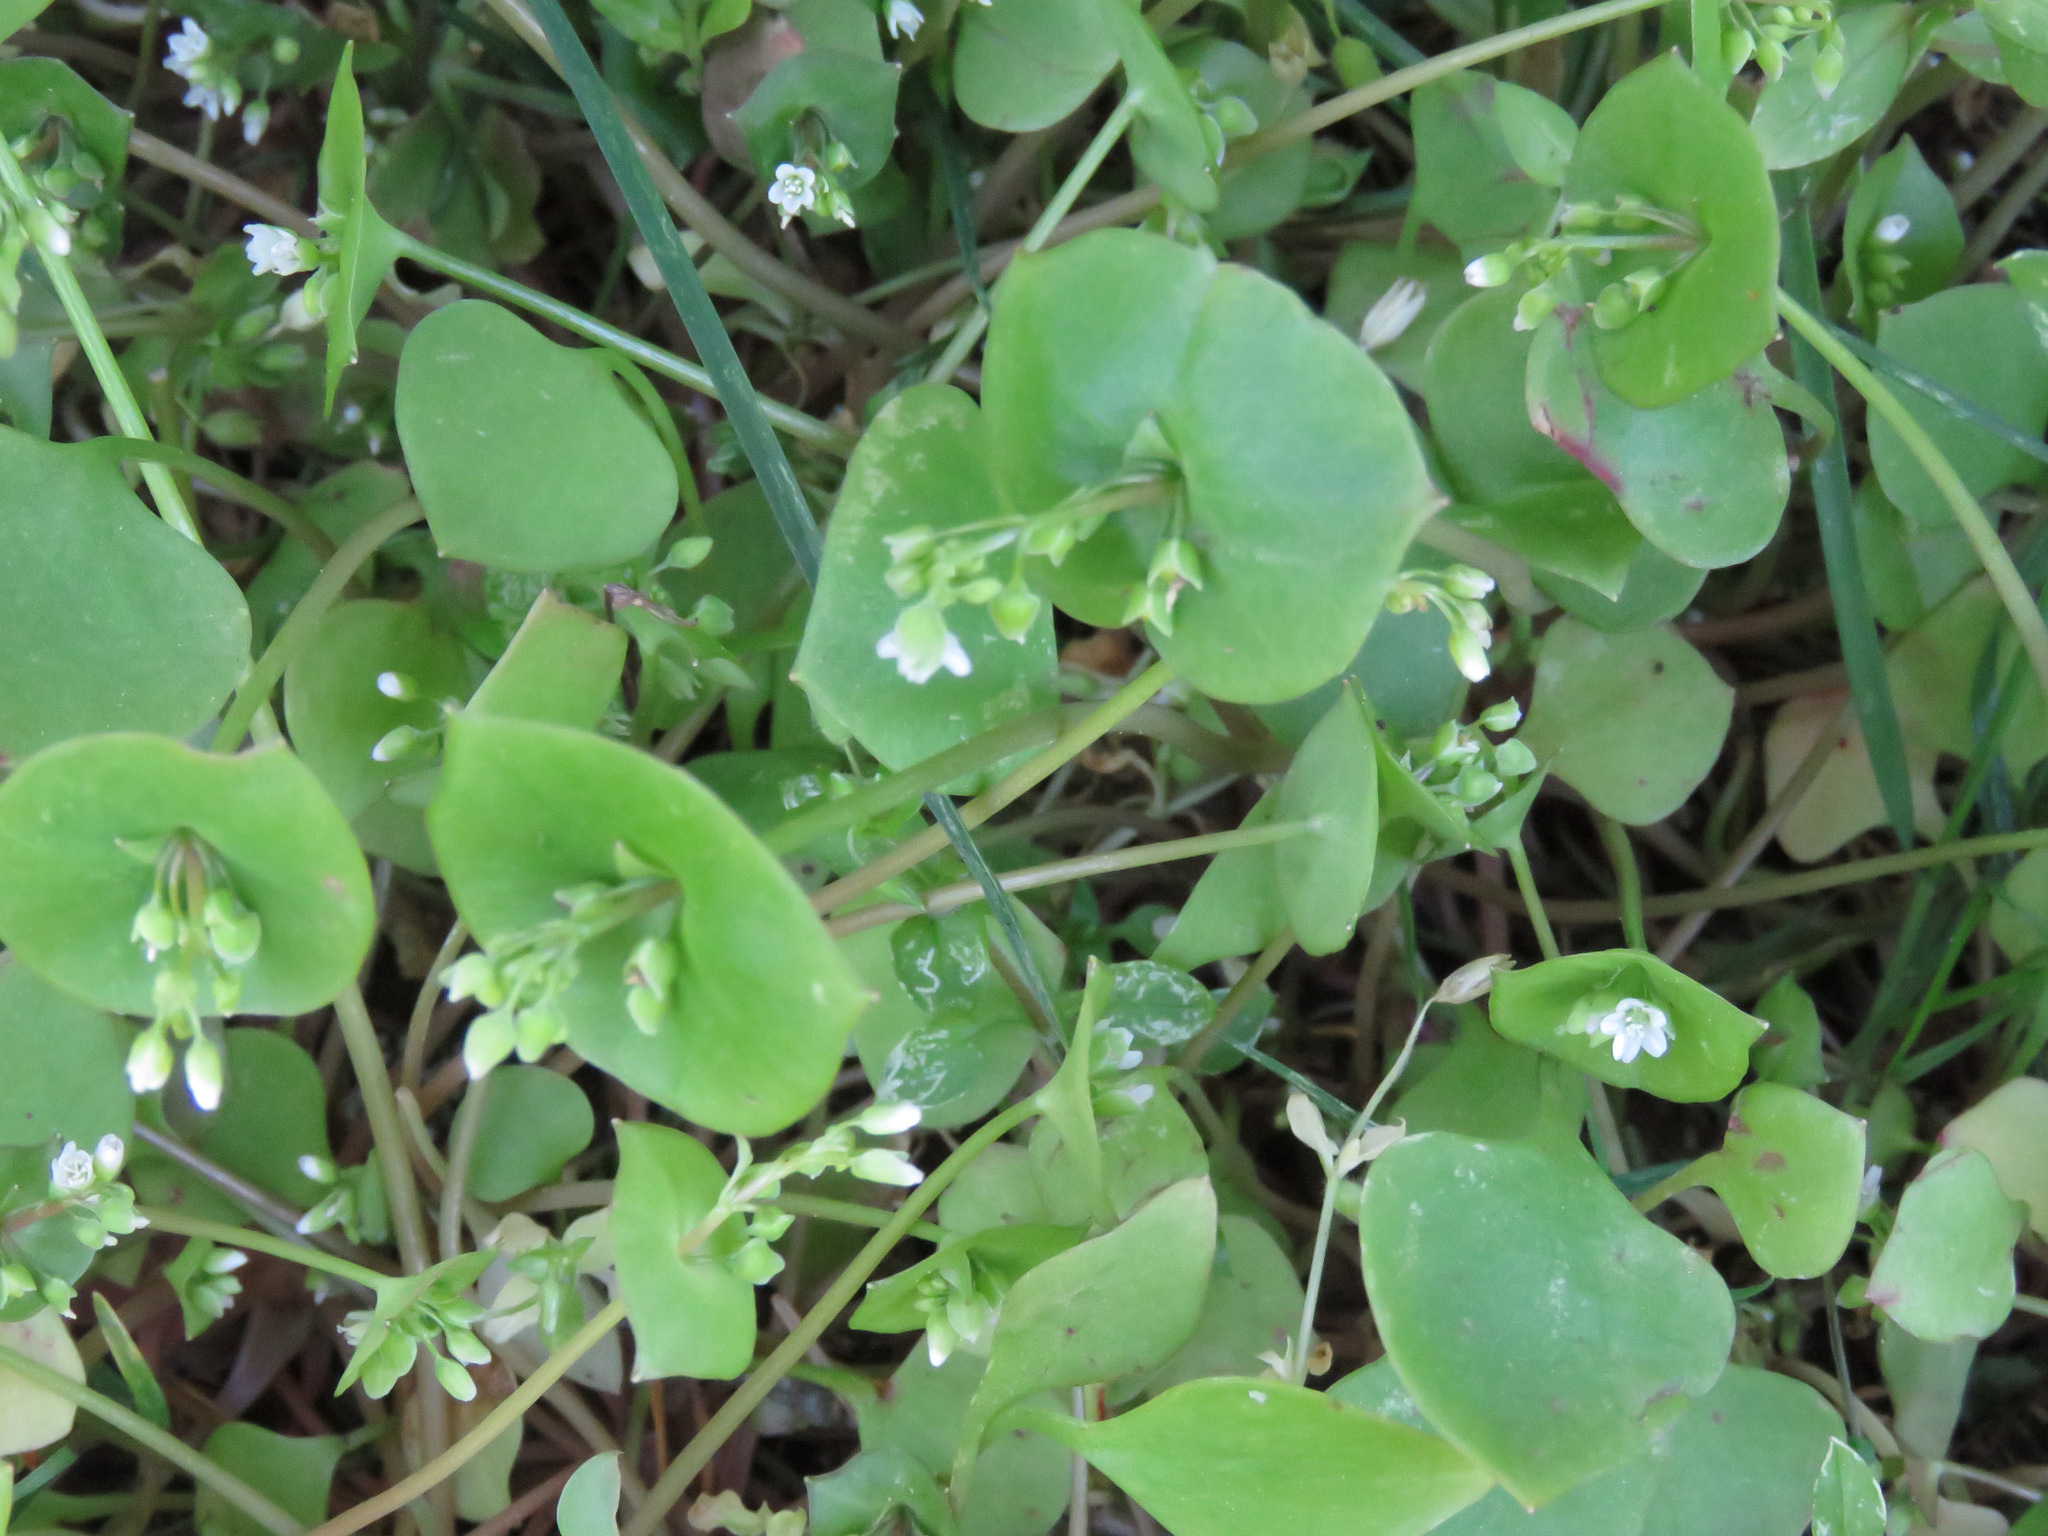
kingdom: Plantae
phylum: Tracheophyta
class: Magnoliopsida
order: Caryophyllales
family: Montiaceae
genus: Claytonia
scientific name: Claytonia perfoliata
